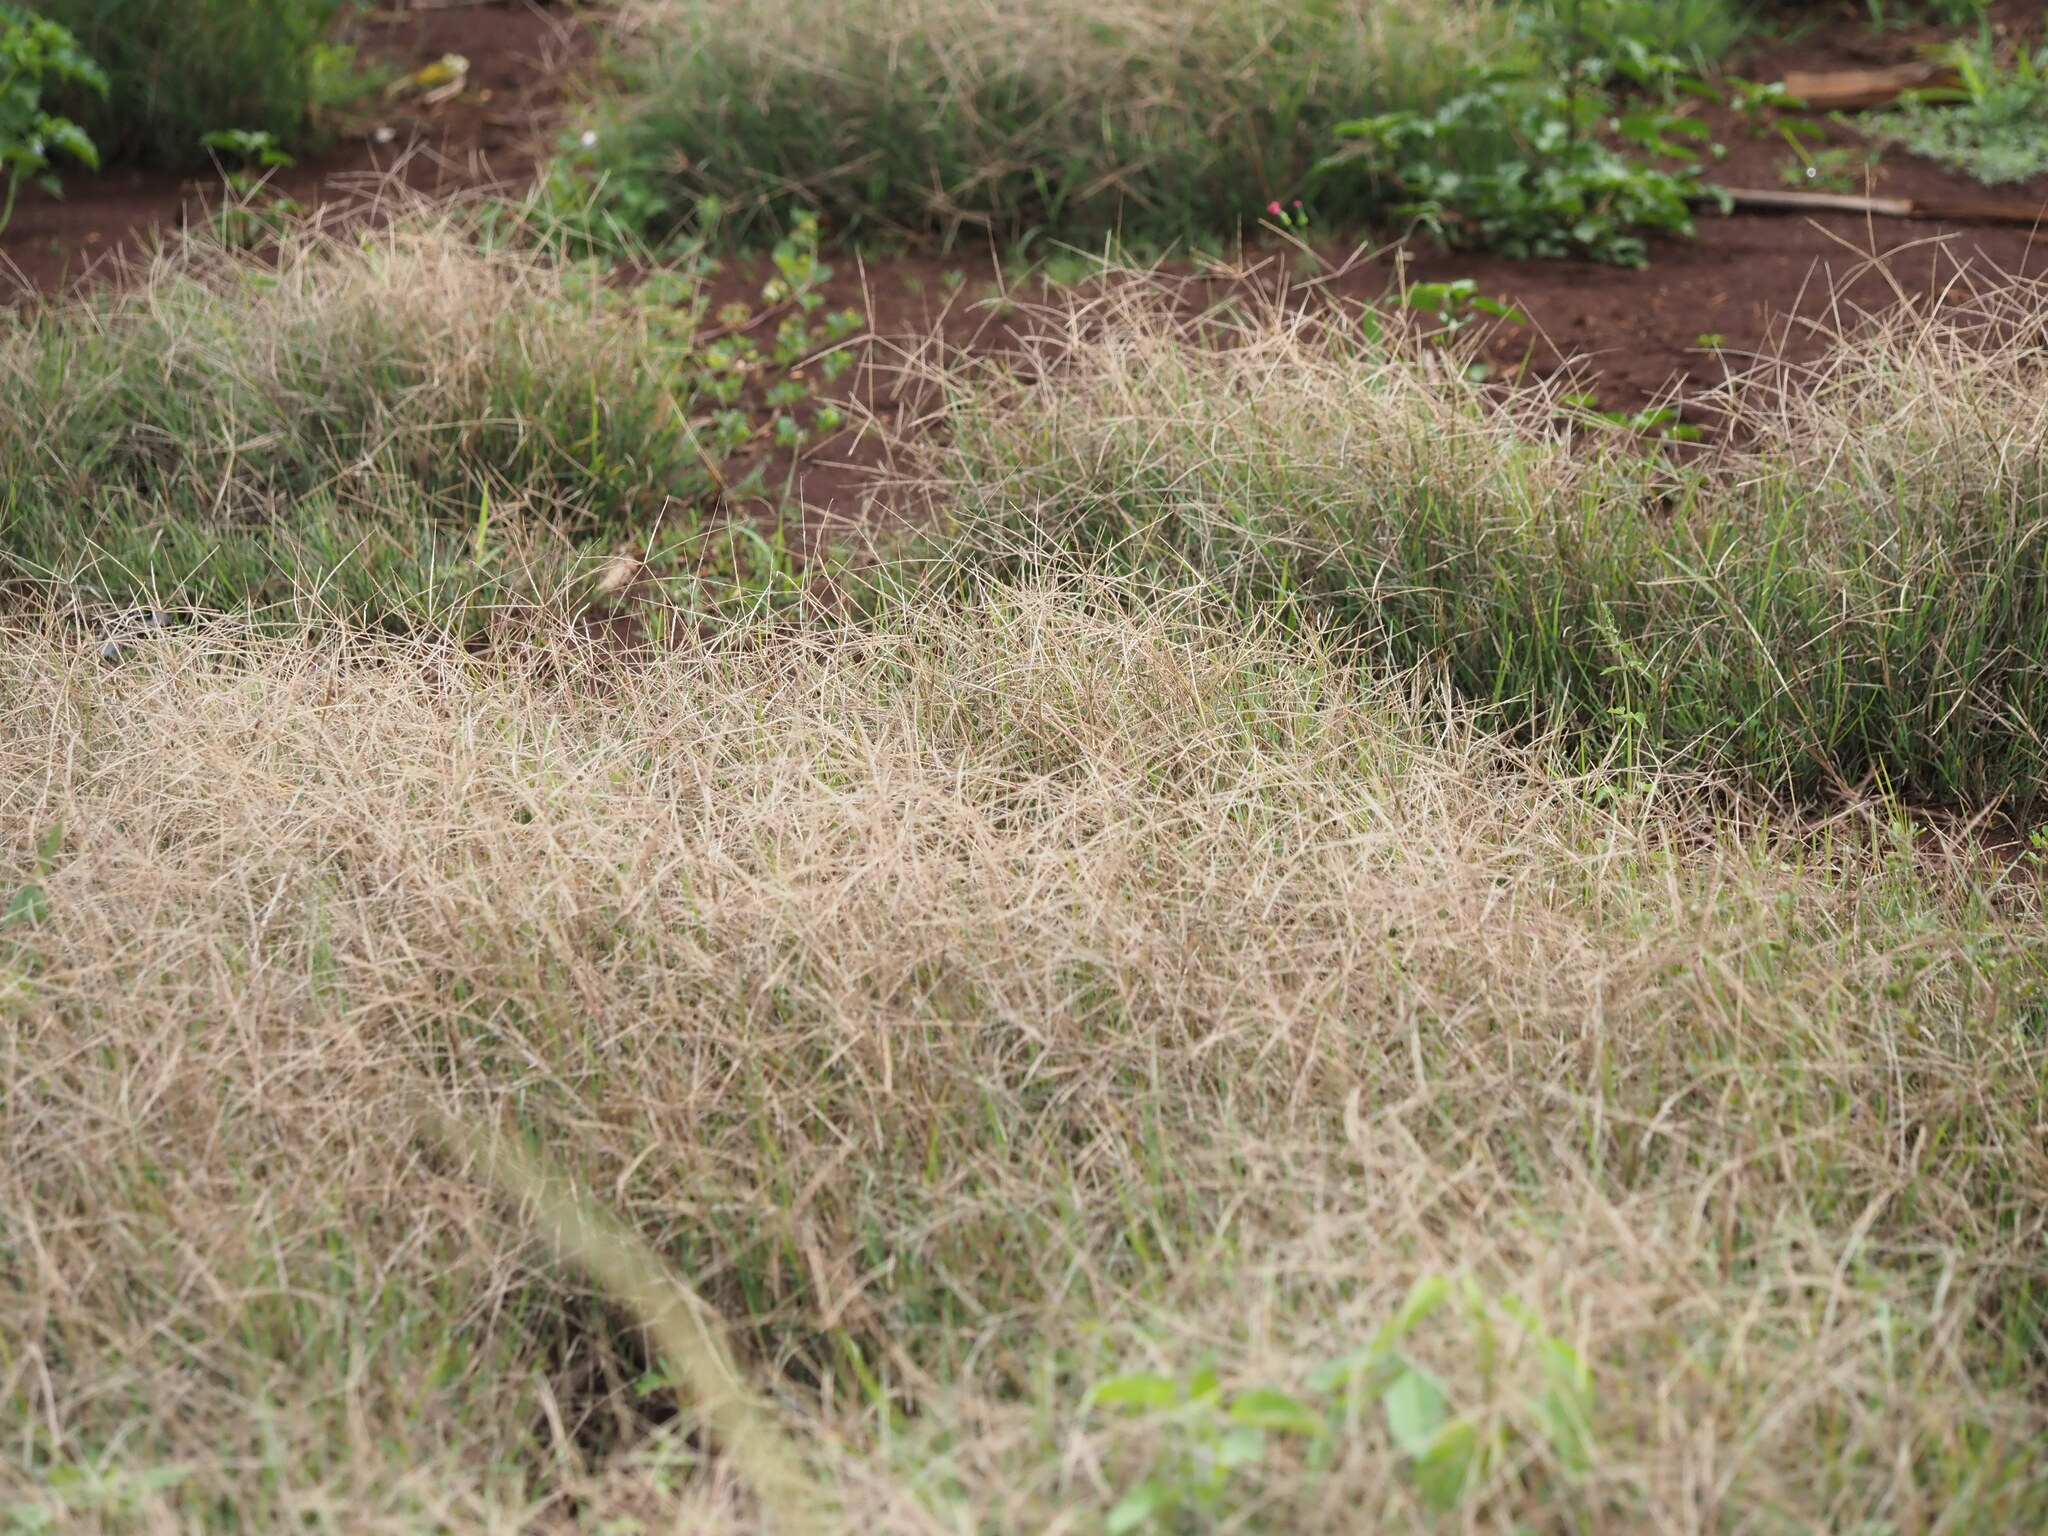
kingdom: Plantae
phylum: Tracheophyta
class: Liliopsida
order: Poales
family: Poaceae
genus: Chloris
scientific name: Chloris divaricata
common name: Spreading windmill grass
